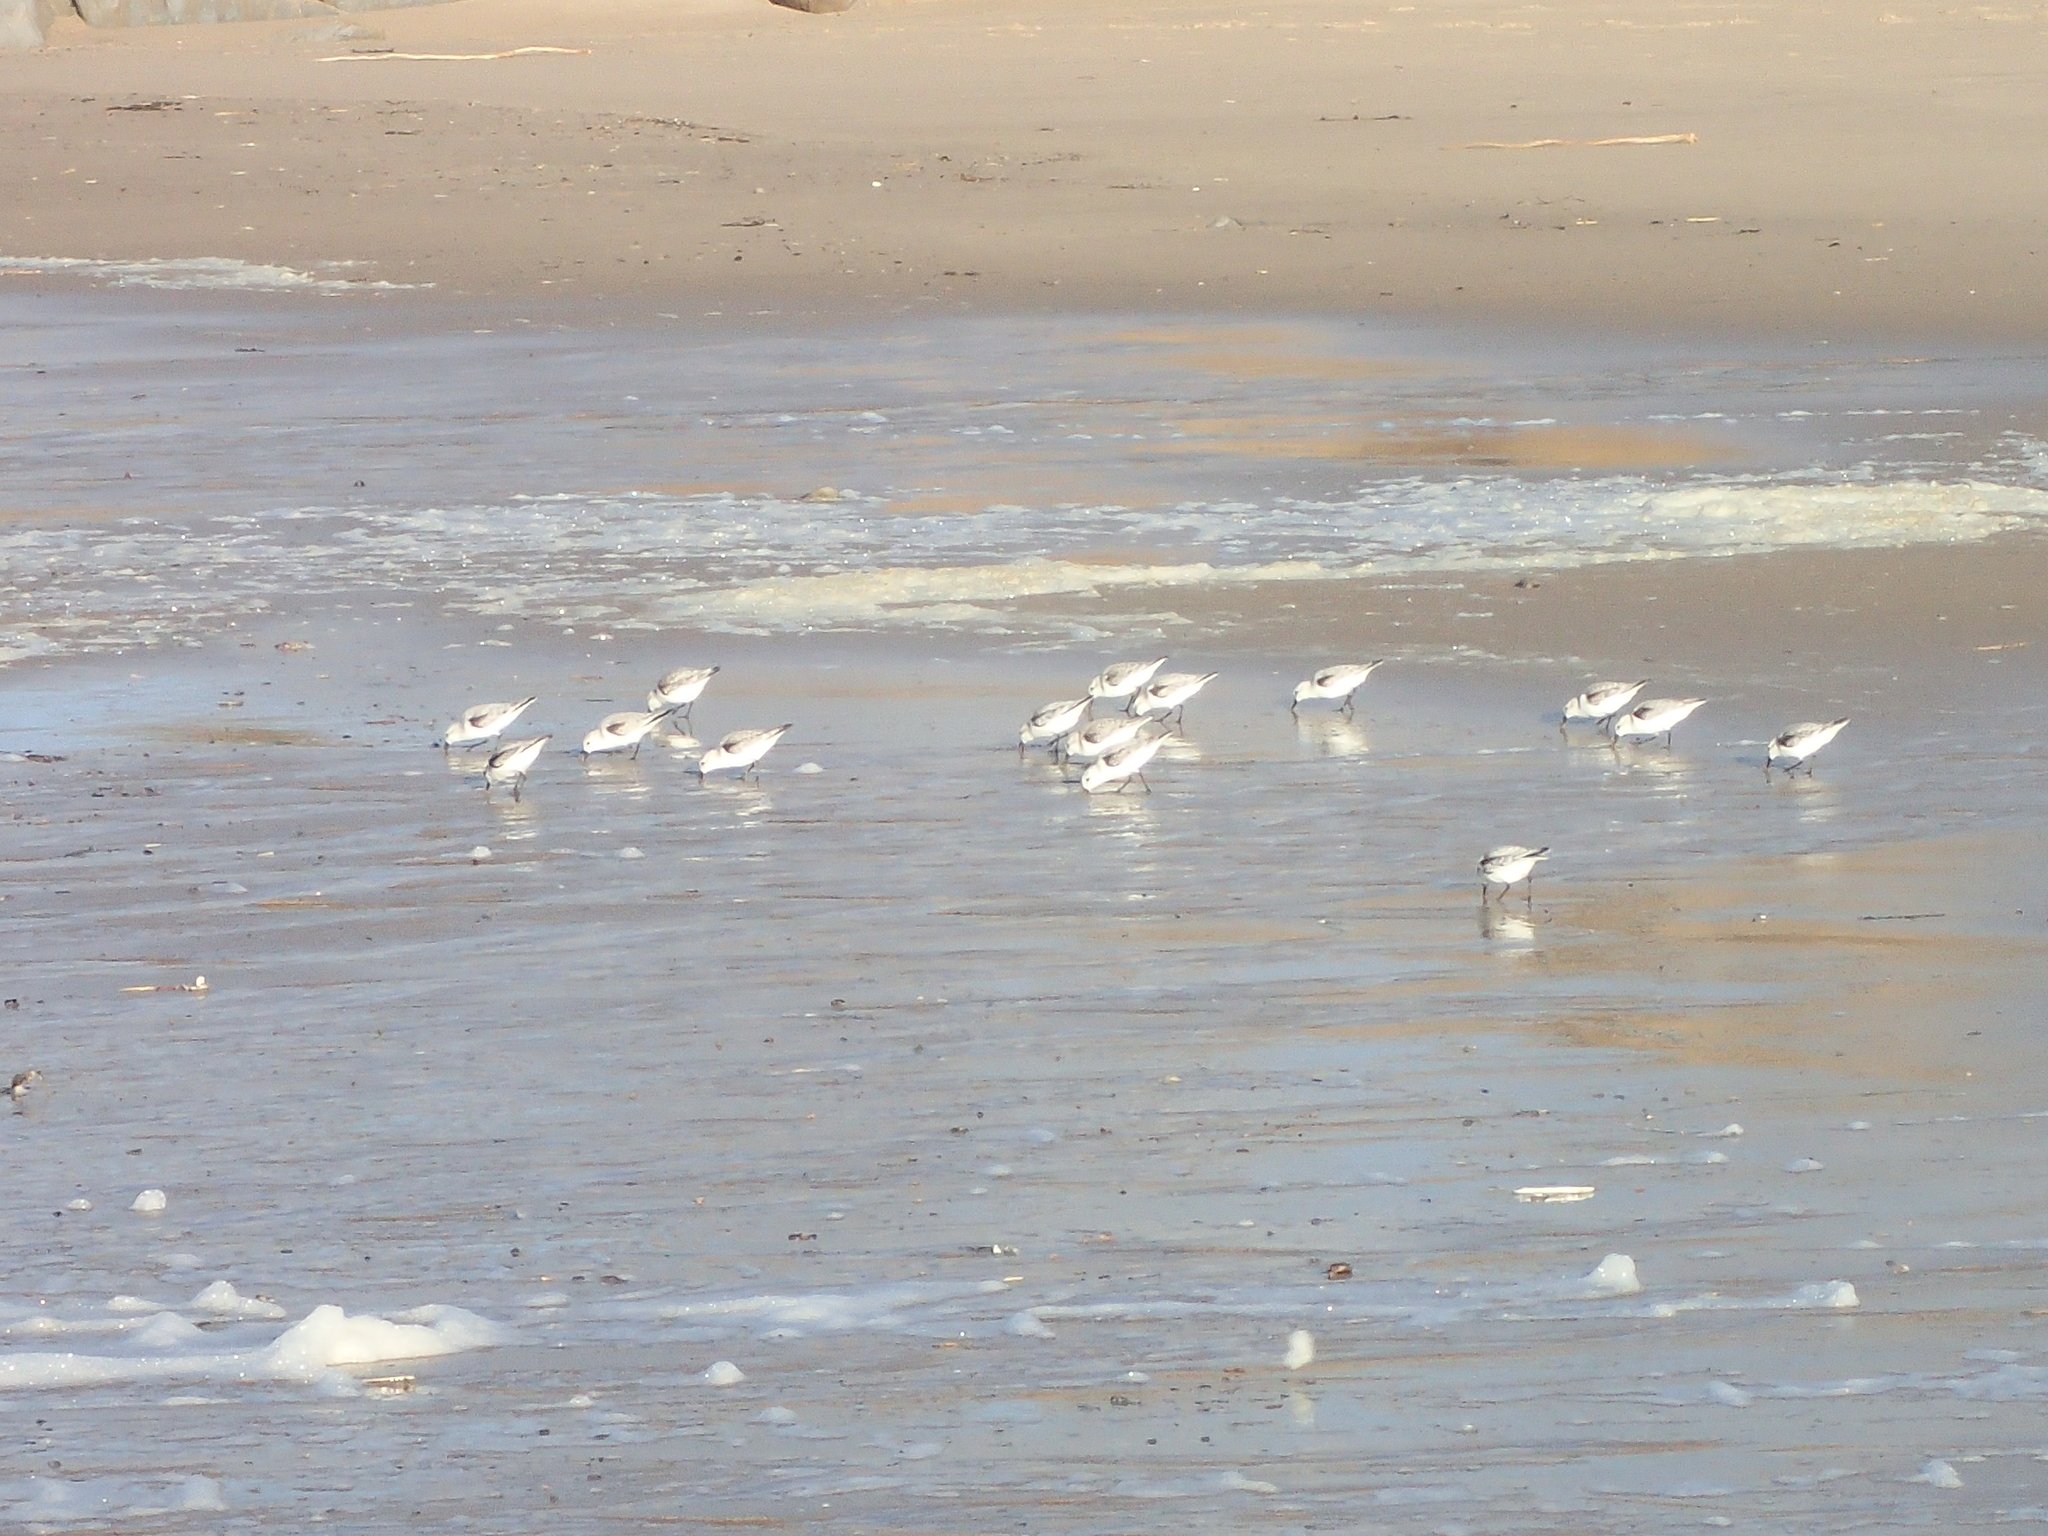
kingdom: Animalia
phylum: Chordata
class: Aves
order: Charadriiformes
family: Scolopacidae
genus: Calidris
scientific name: Calidris alba
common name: Sanderling
